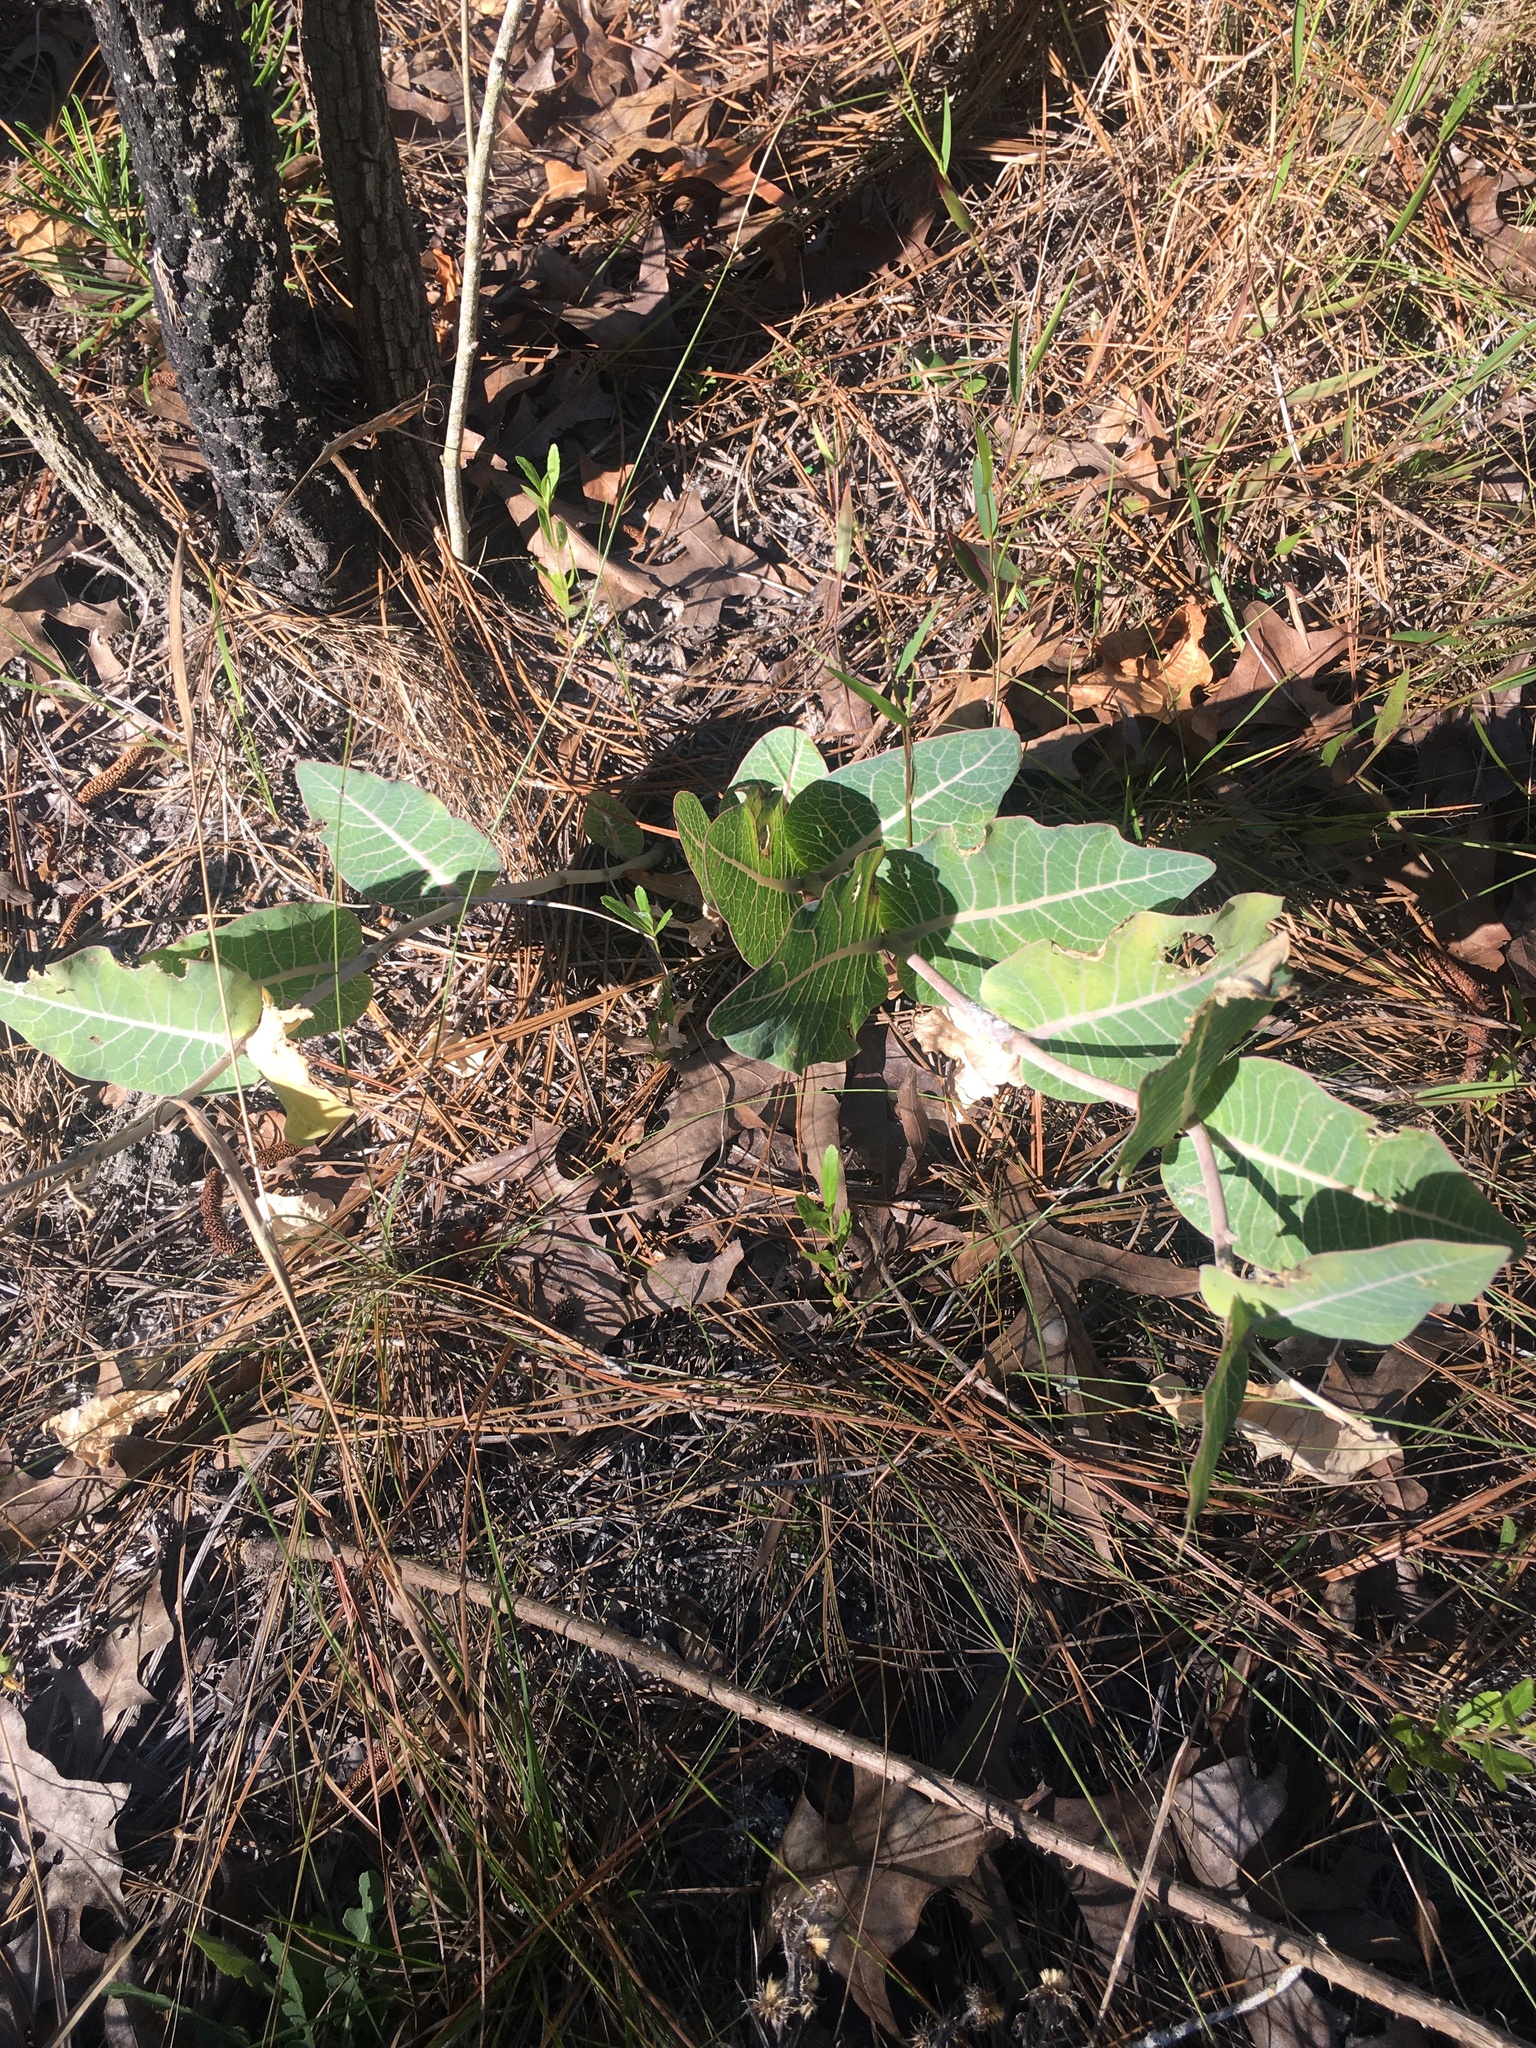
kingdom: Plantae
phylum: Tracheophyta
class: Magnoliopsida
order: Gentianales
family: Apocynaceae
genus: Asclepias
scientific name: Asclepias humistrata
